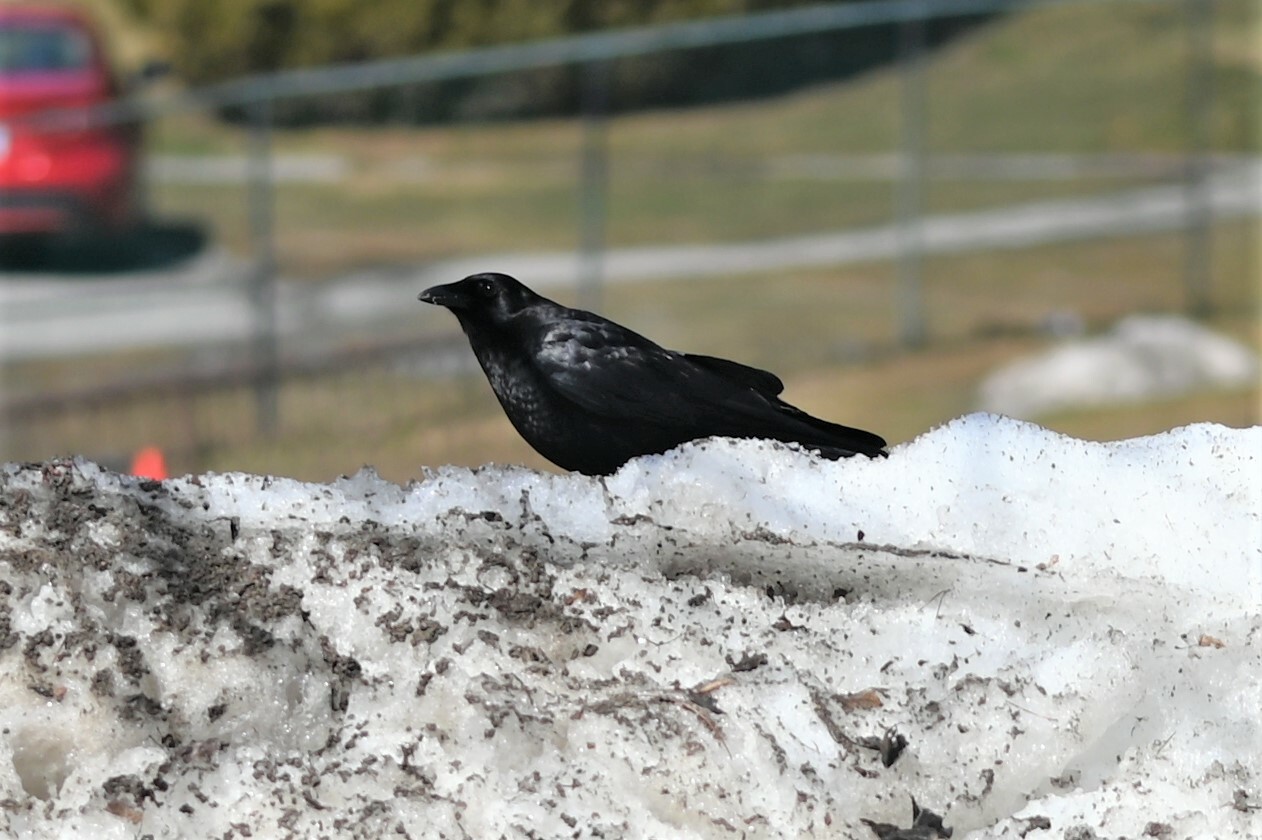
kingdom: Animalia
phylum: Chordata
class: Aves
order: Passeriformes
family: Corvidae
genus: Corvus
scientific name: Corvus brachyrhynchos
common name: American crow
